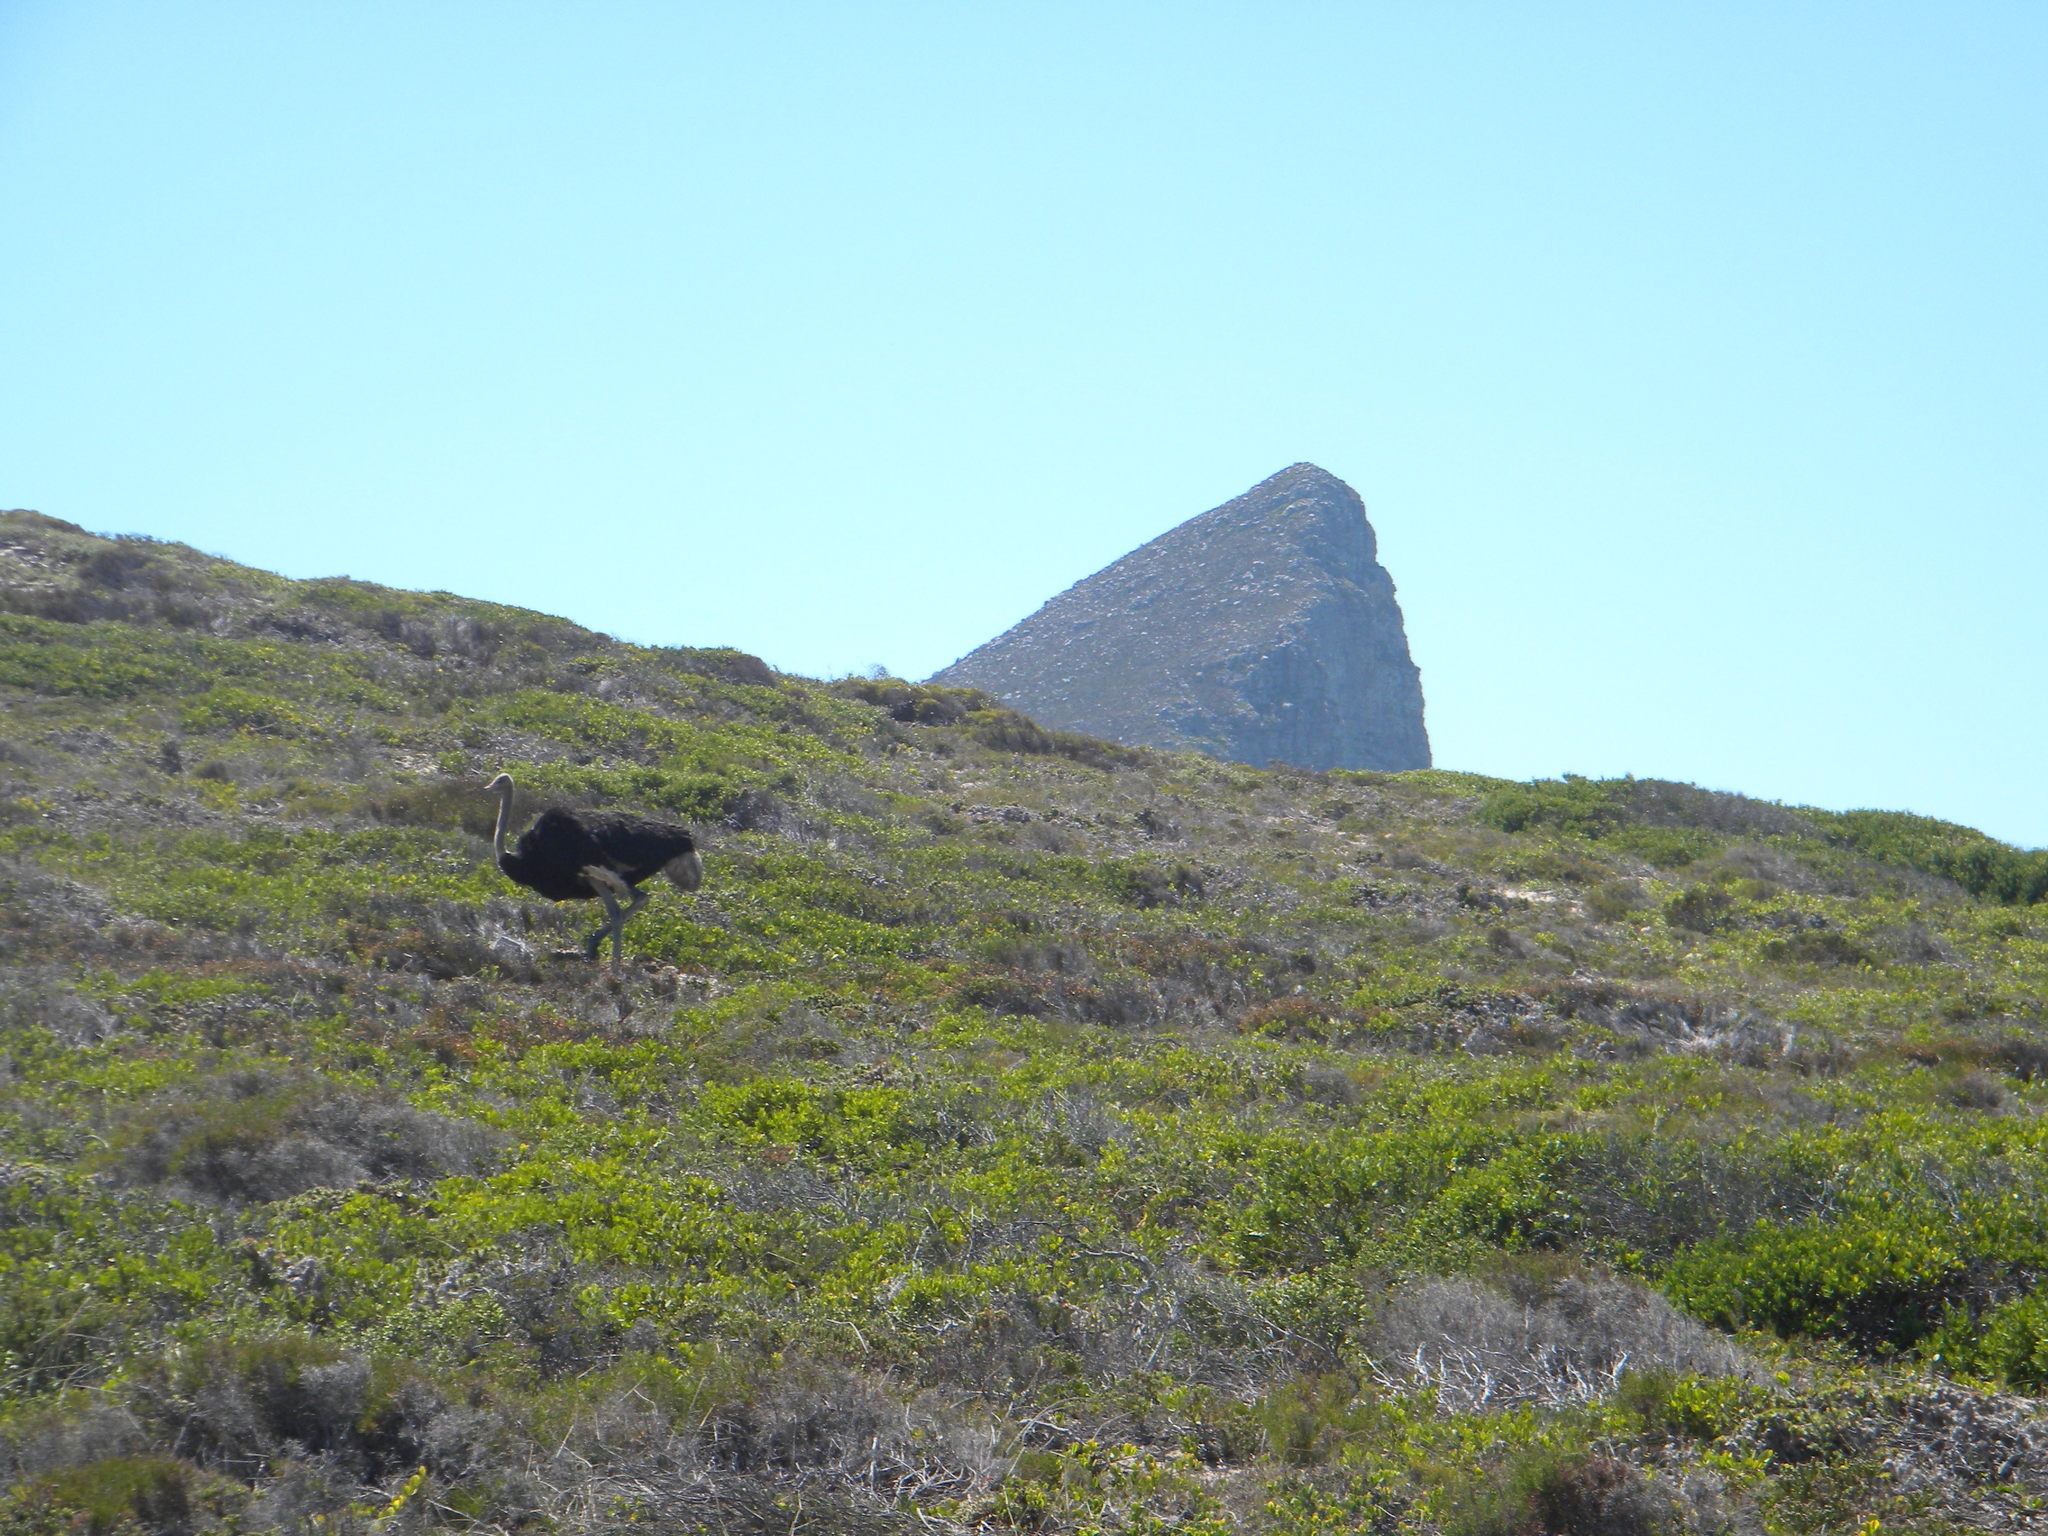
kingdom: Animalia
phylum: Chordata
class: Aves
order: Struthioniformes
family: Struthionidae
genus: Struthio
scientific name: Struthio camelus
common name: Common ostrich
